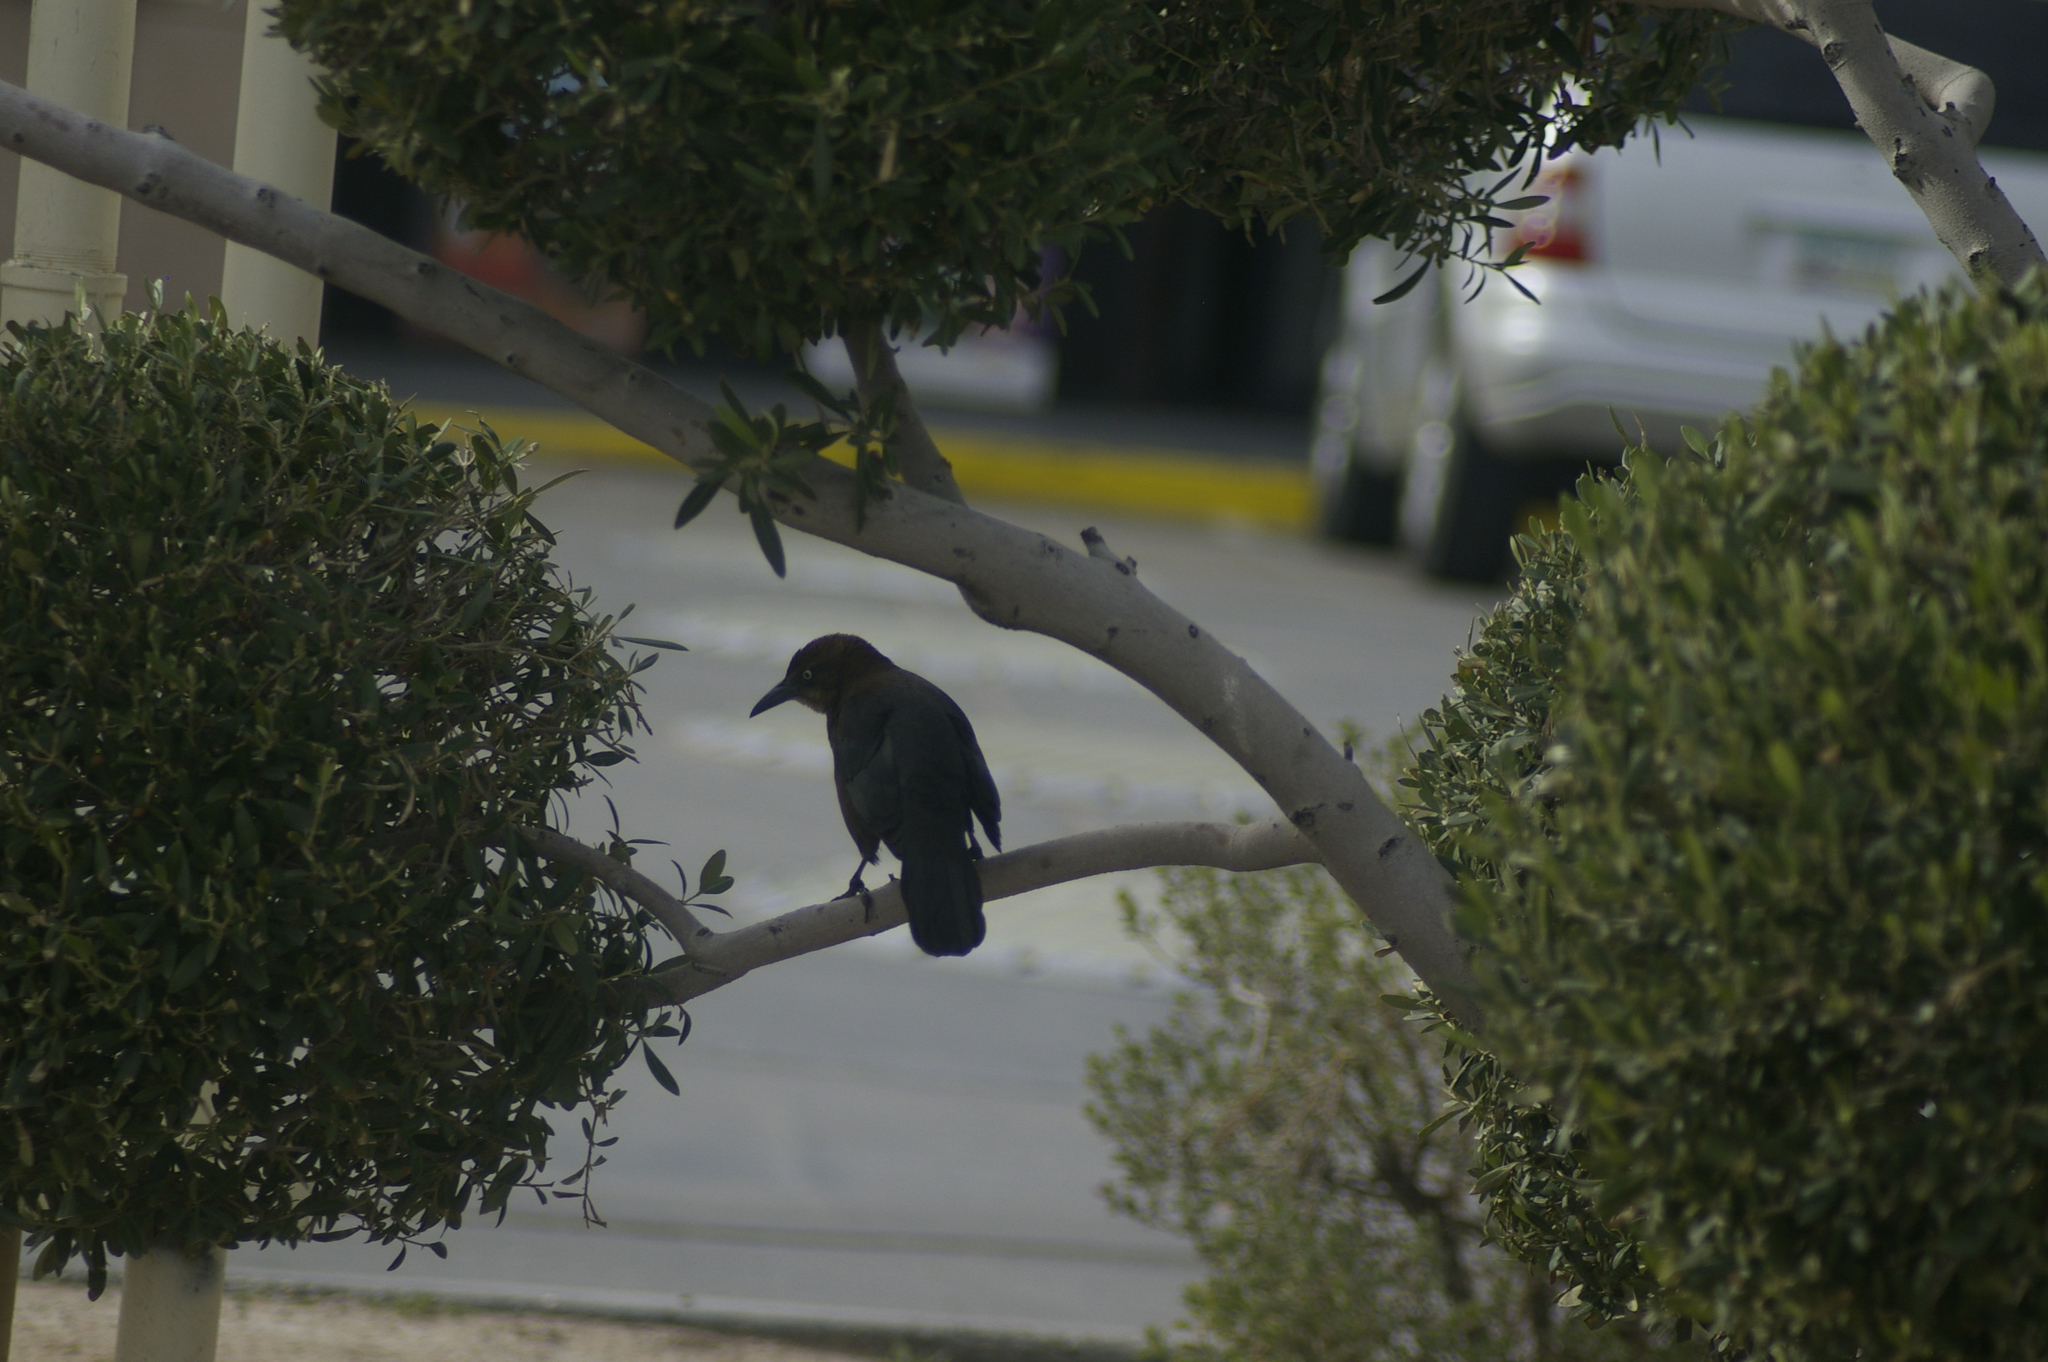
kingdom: Animalia
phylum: Chordata
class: Aves
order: Passeriformes
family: Icteridae
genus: Quiscalus
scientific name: Quiscalus mexicanus
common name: Great-tailed grackle
